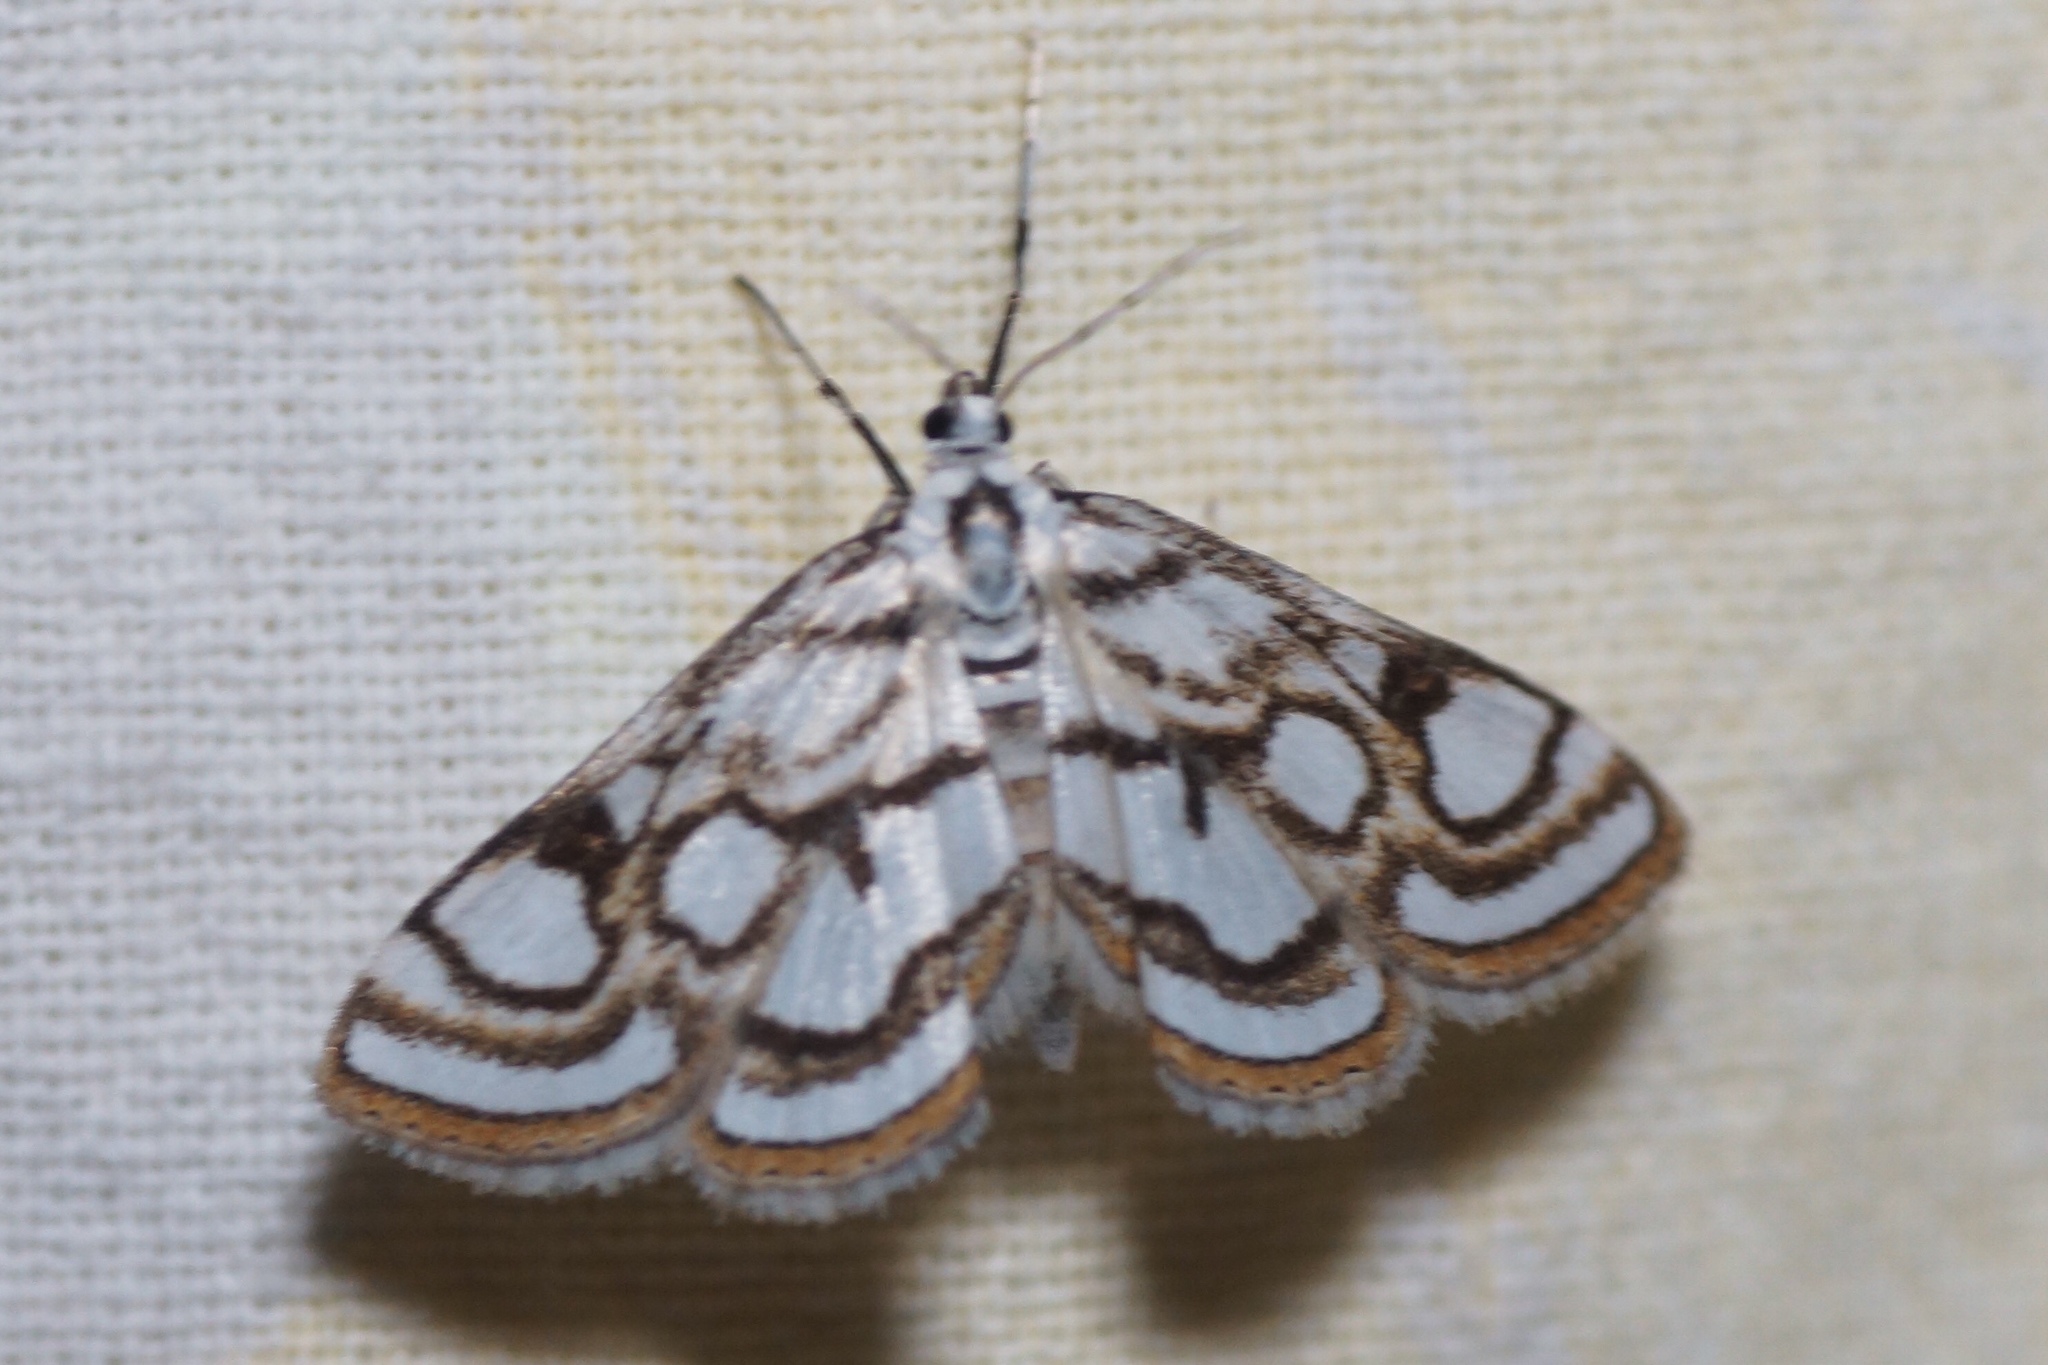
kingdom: Animalia
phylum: Arthropoda
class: Insecta
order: Lepidoptera
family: Crambidae
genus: Nymphula
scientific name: Nymphula nitidulata
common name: Beautiful china mark
